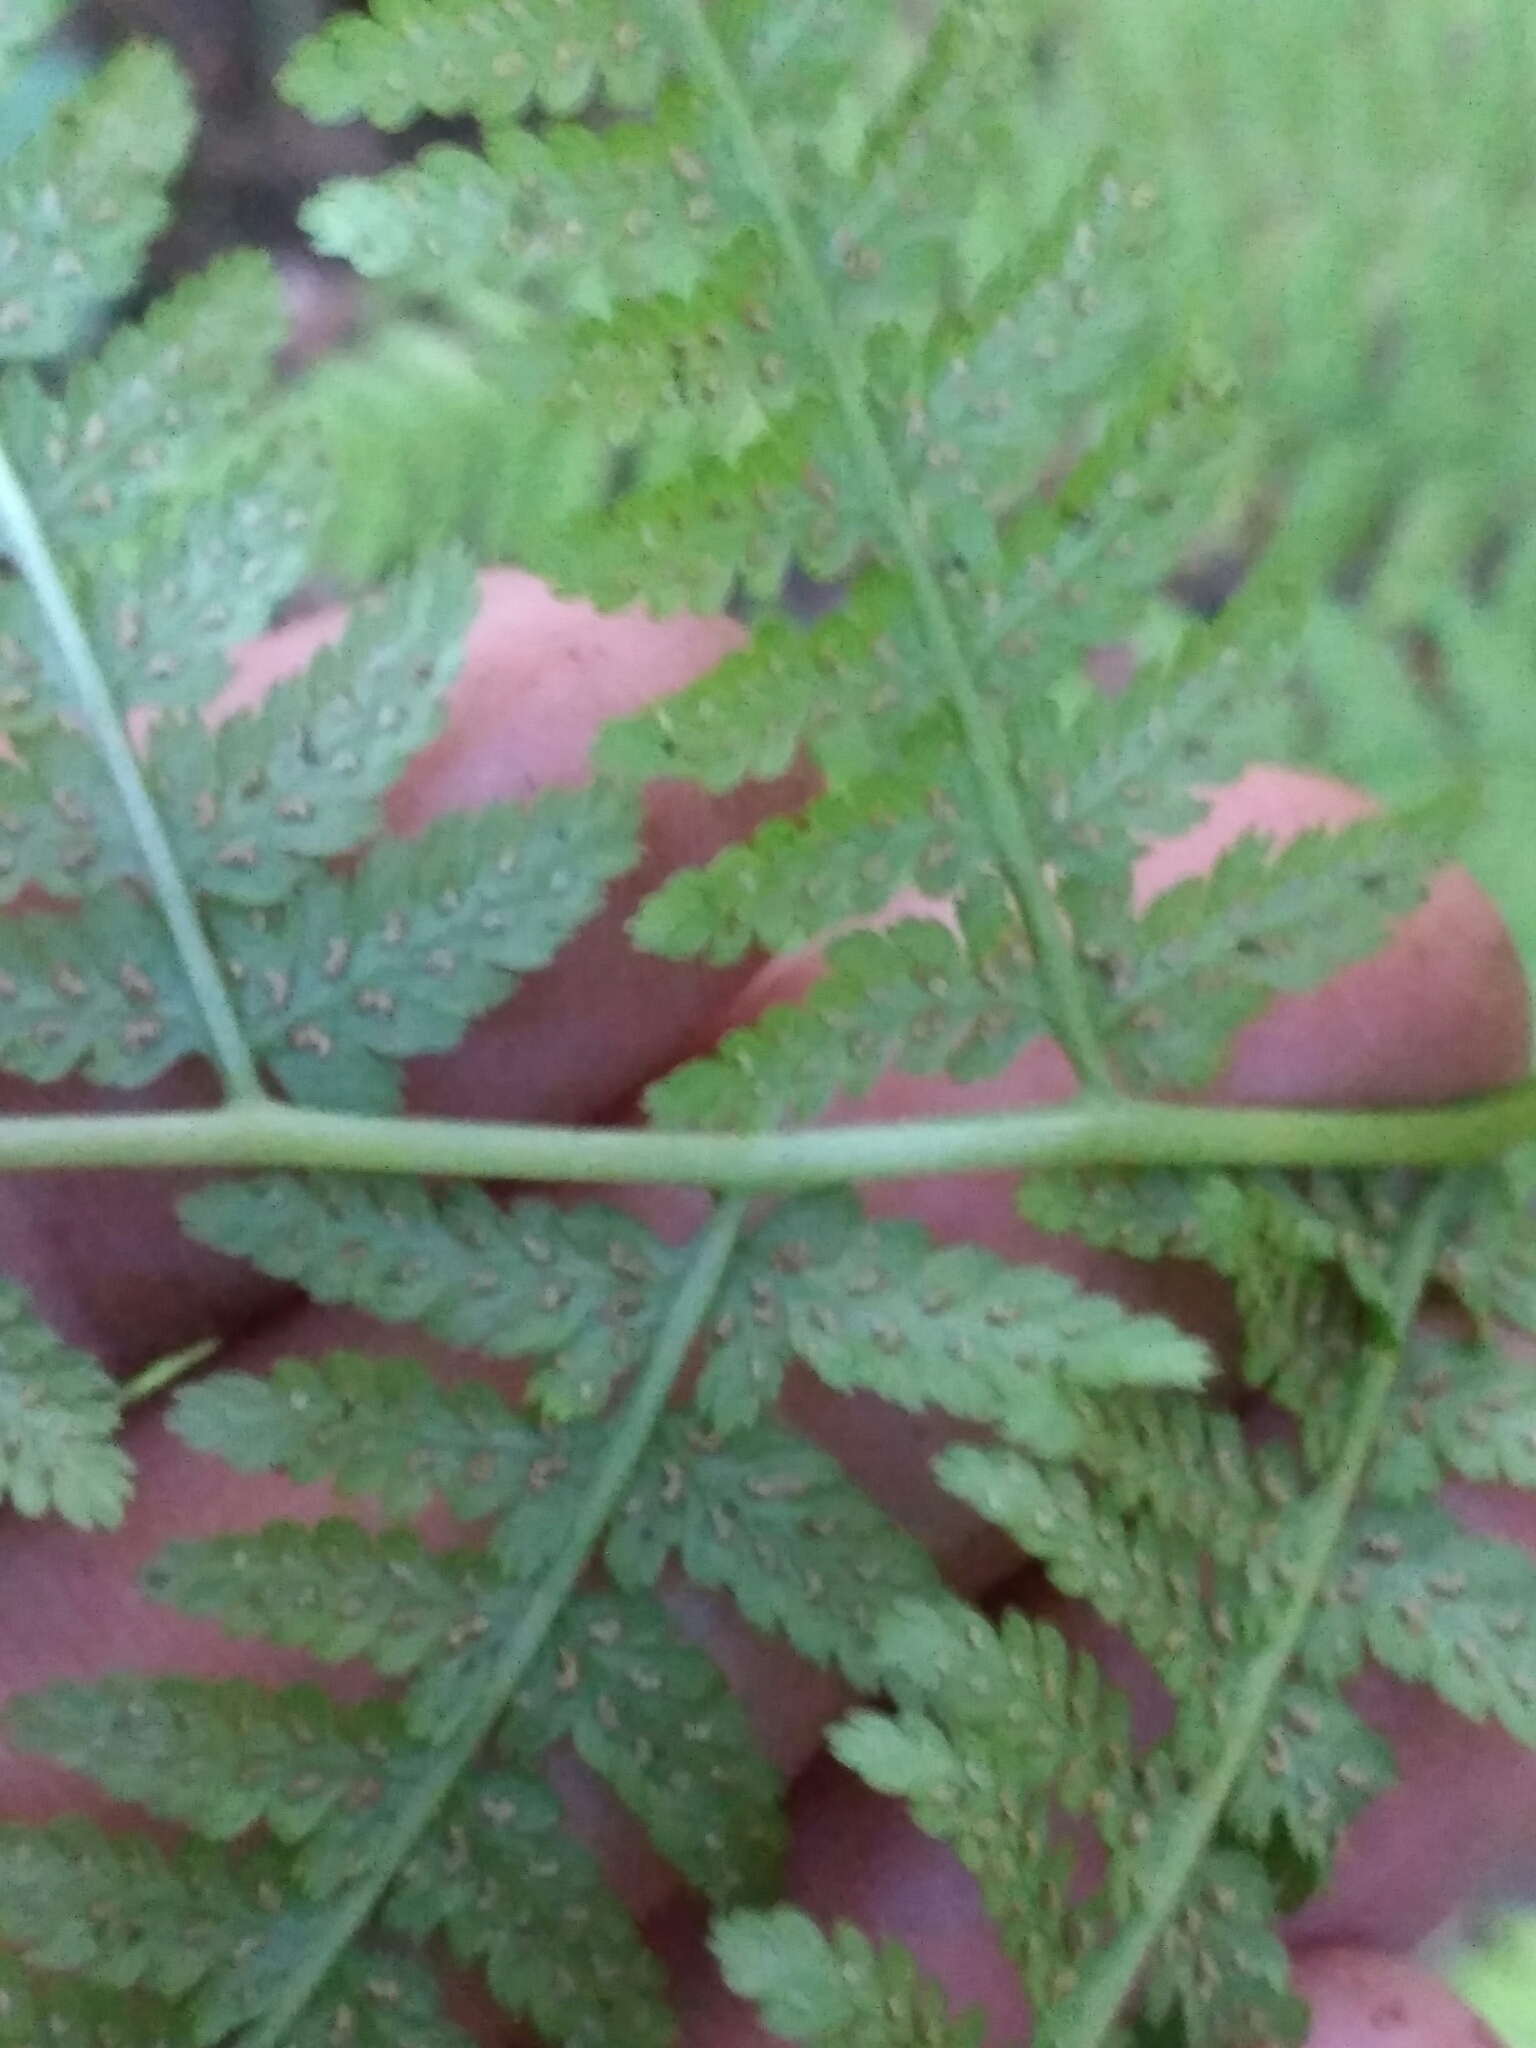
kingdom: Plantae
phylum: Tracheophyta
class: Polypodiopsida
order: Polypodiales
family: Athyriaceae
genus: Athyrium
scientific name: Athyrium filix-femina
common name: Lady fern
